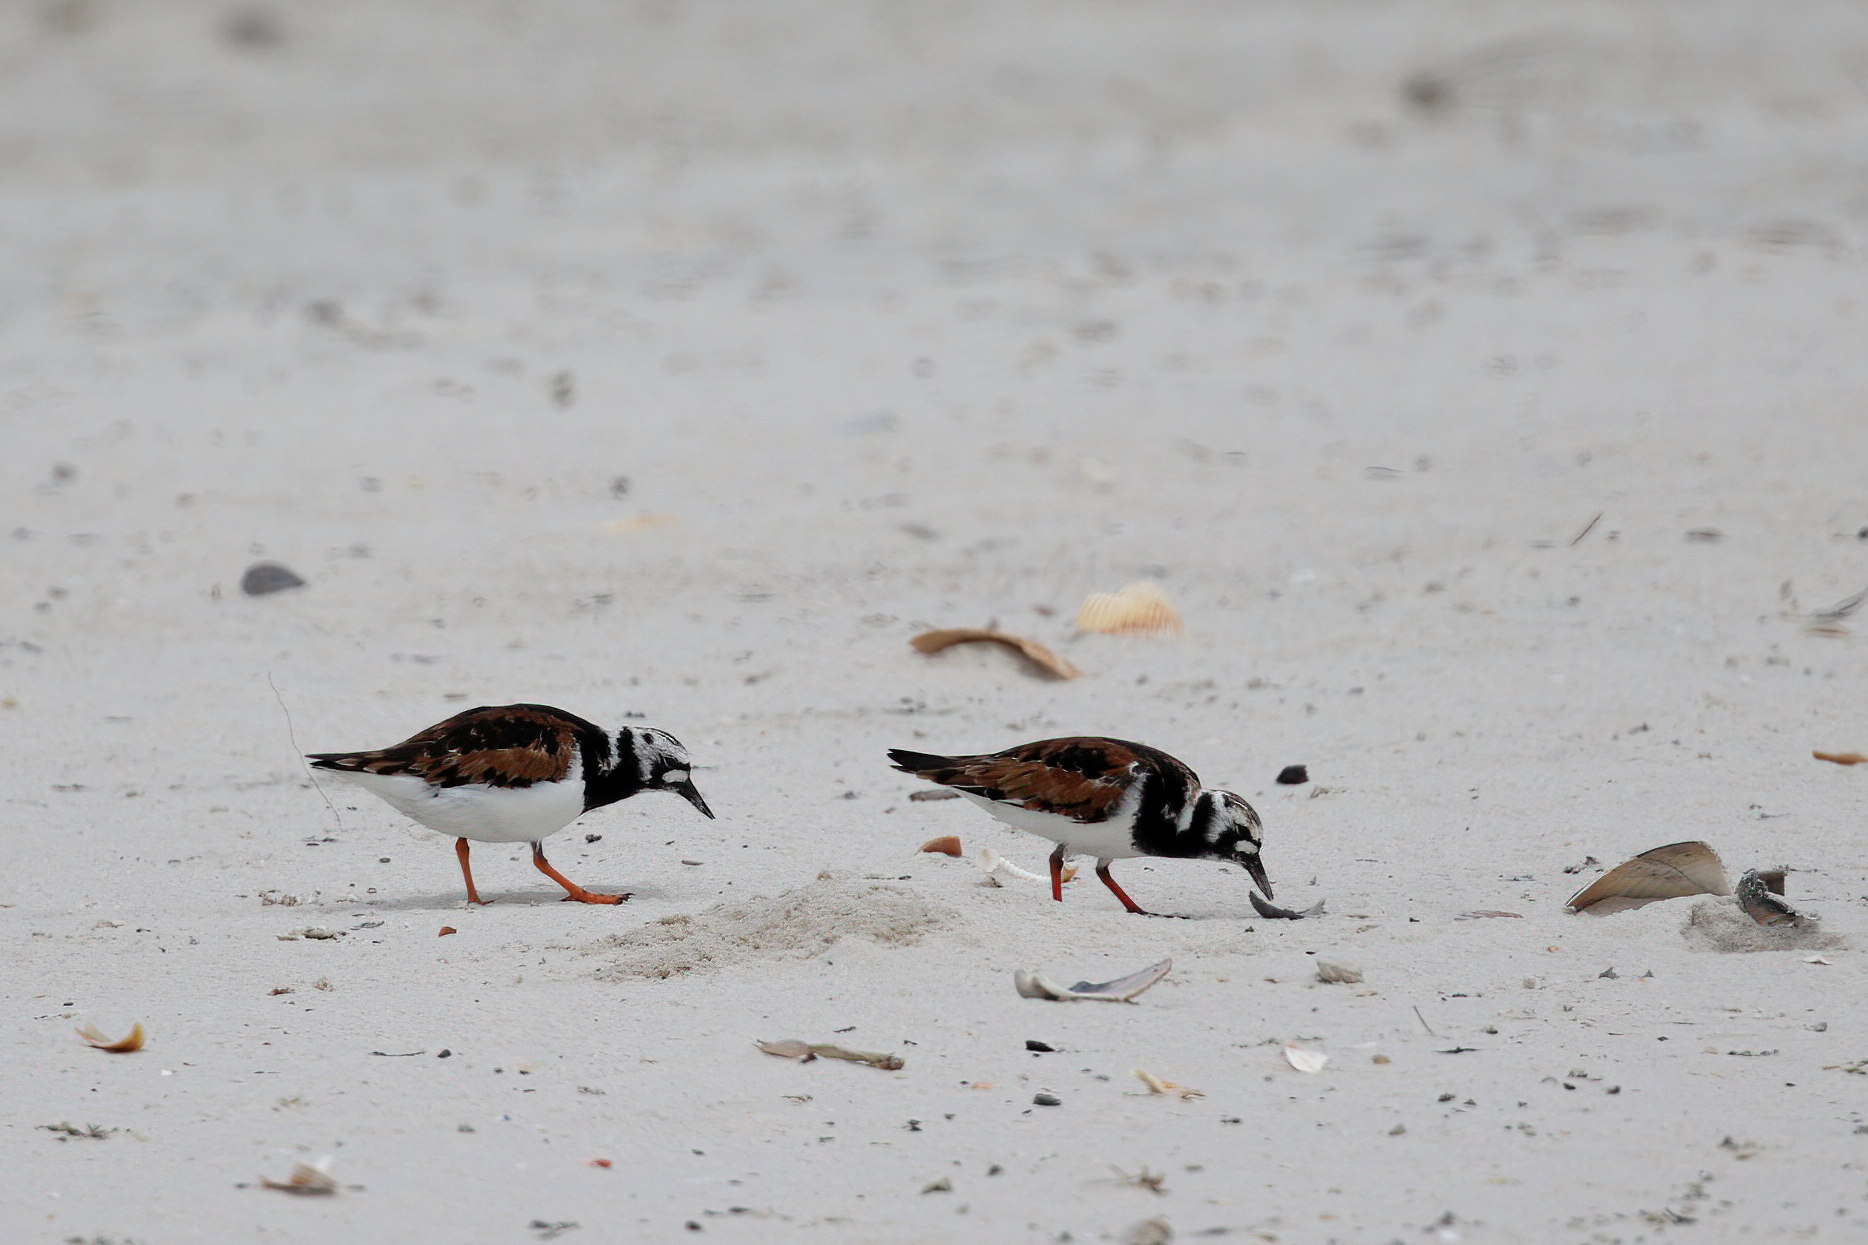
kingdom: Animalia
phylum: Chordata
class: Aves
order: Charadriiformes
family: Scolopacidae
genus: Arenaria
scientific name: Arenaria interpres
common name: Ruddy turnstone
